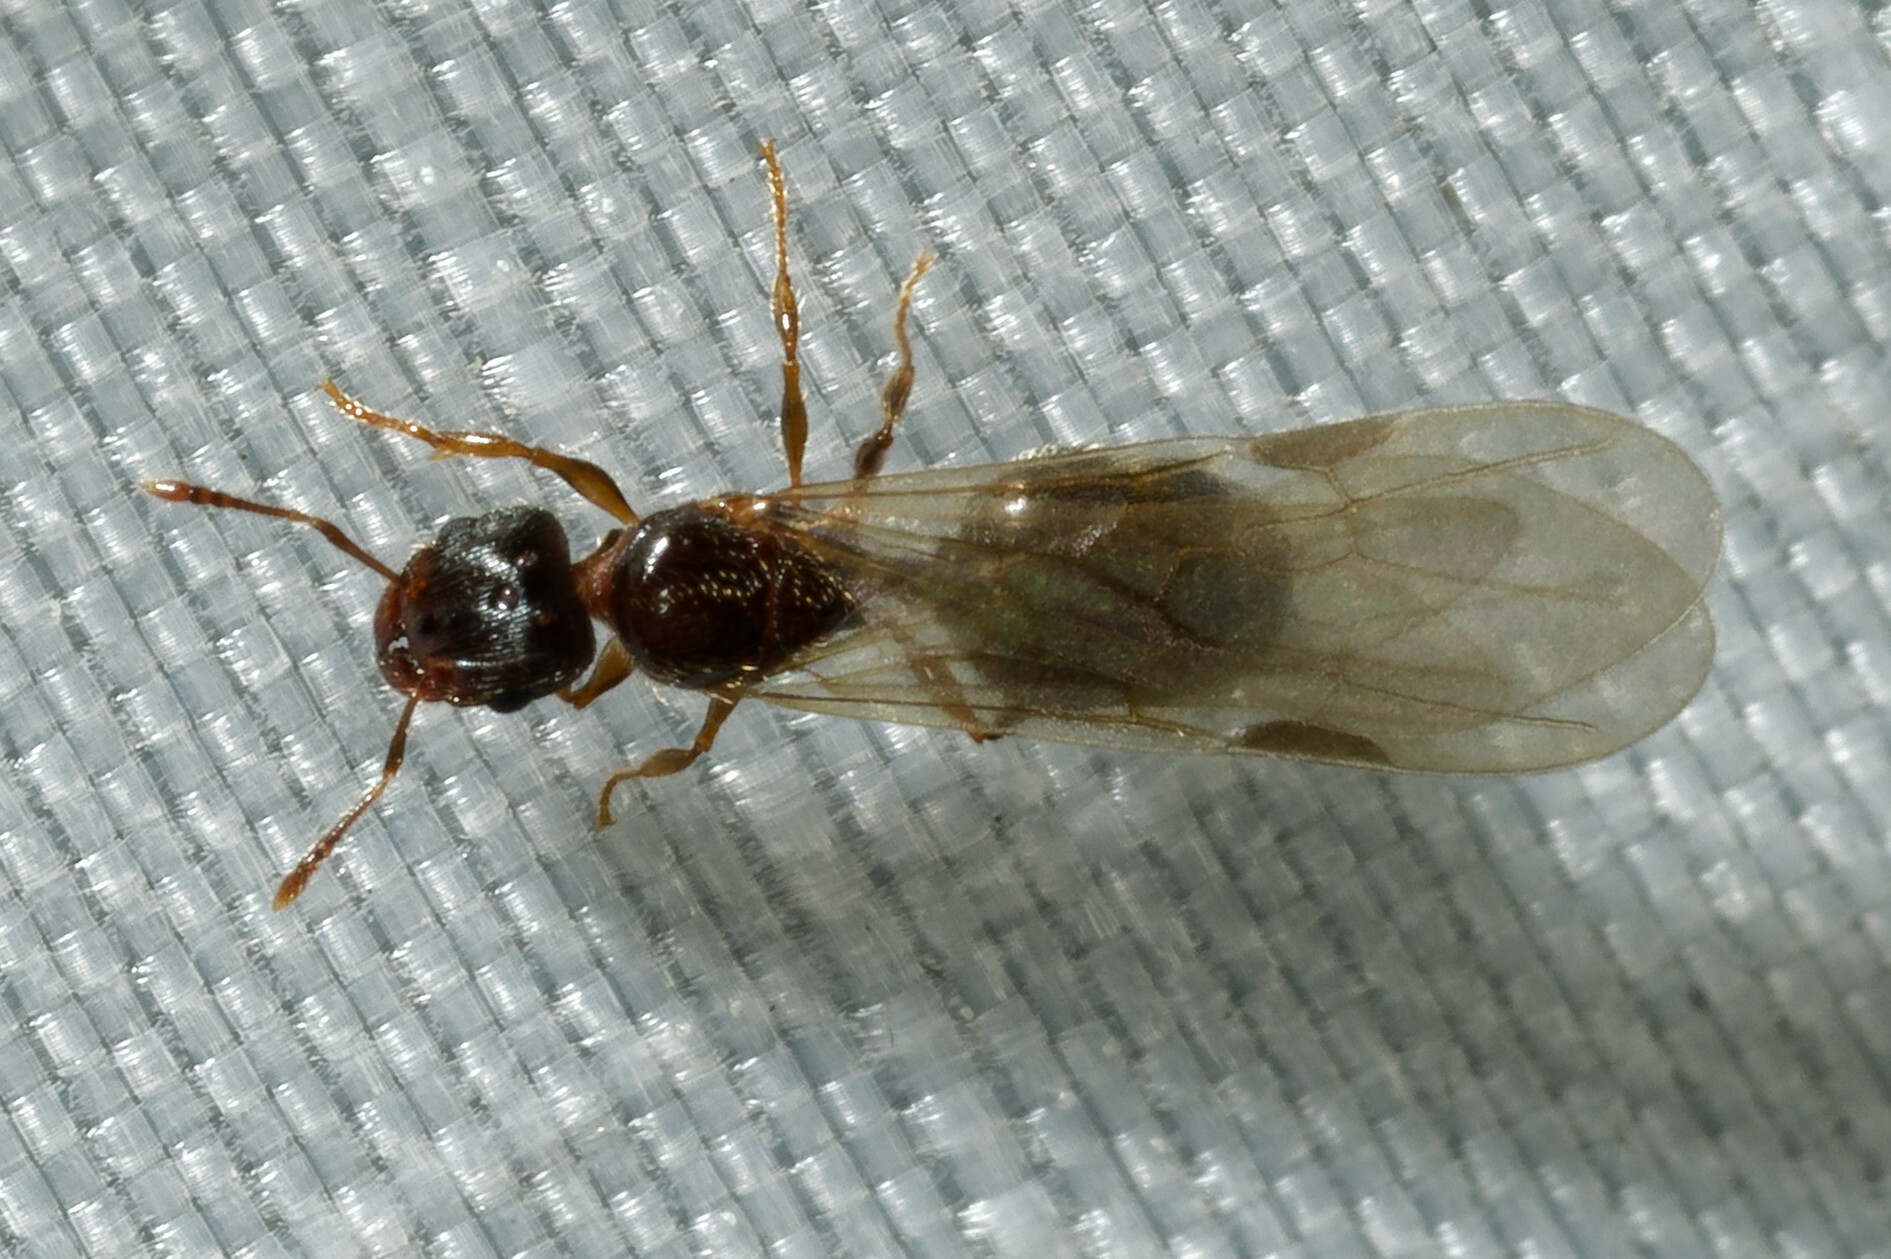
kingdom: Animalia
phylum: Arthropoda
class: Insecta
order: Hymenoptera
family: Formicidae
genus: Pheidole
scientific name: Pheidole navigans
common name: Navigating big-headed ant
